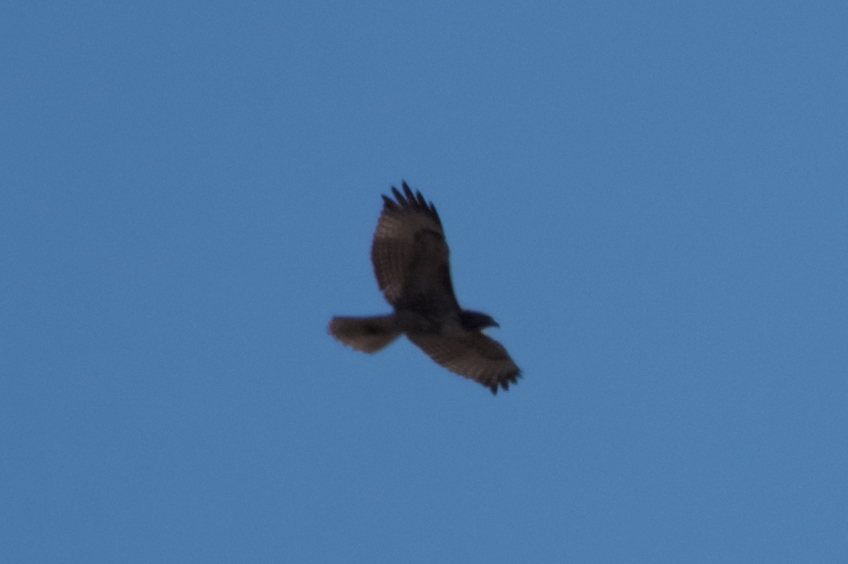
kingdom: Animalia
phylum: Chordata
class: Aves
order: Accipitriformes
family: Accipitridae
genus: Buteo
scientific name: Buteo jamaicensis
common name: Red-tailed hawk
